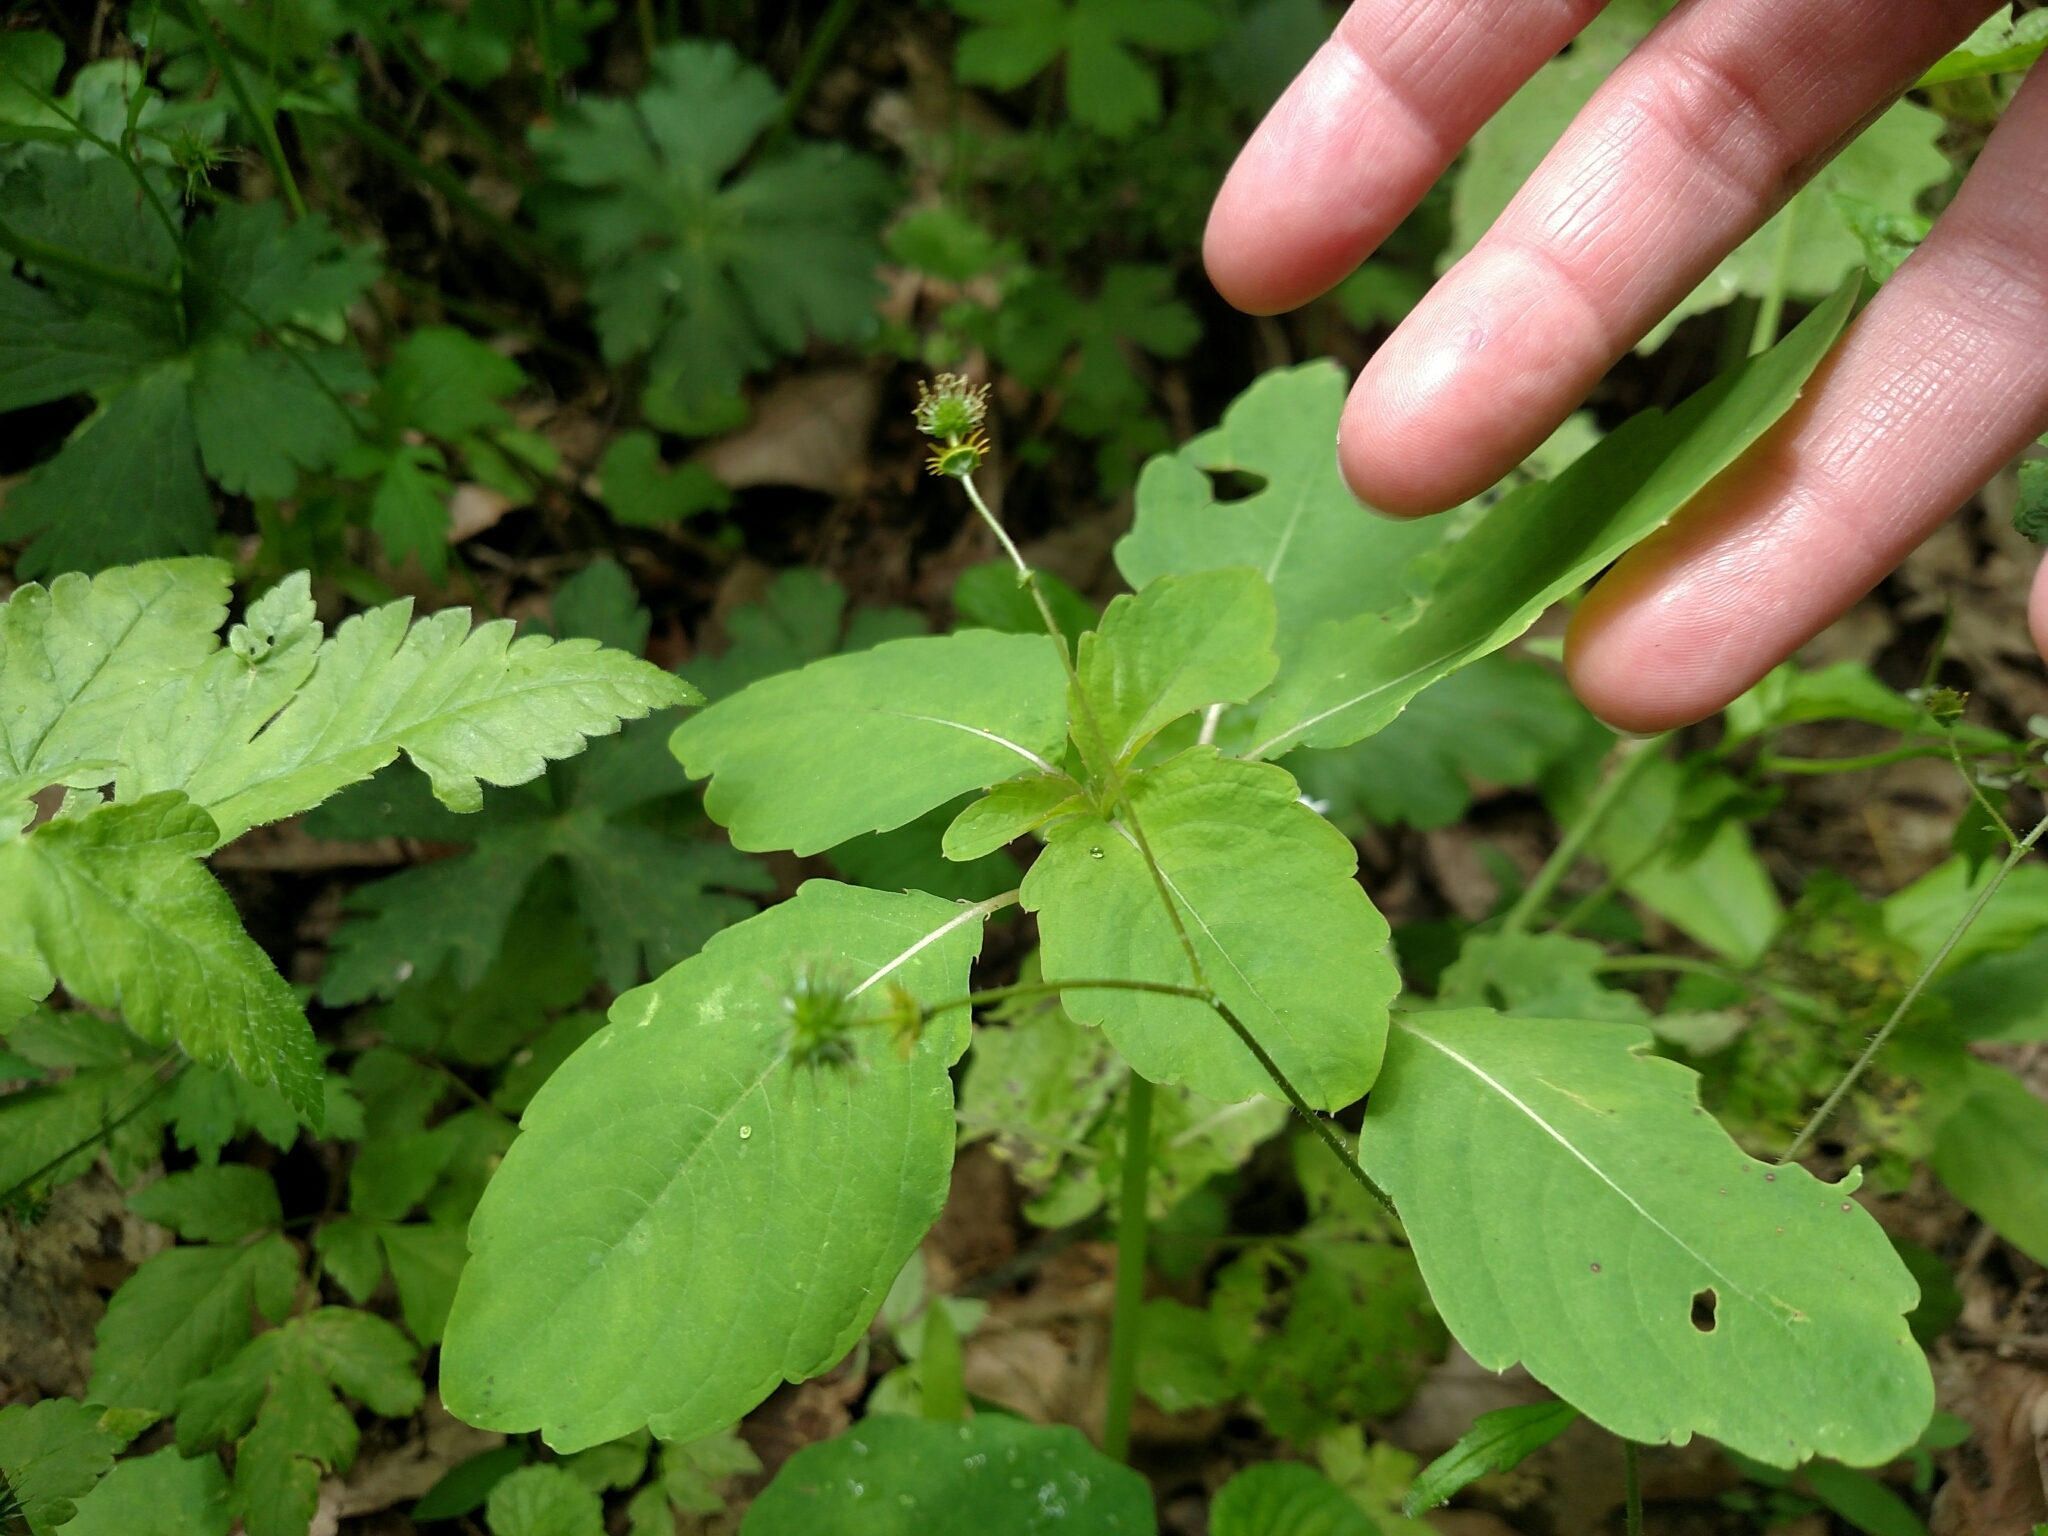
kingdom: Plantae
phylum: Tracheophyta
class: Magnoliopsida
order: Ericales
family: Balsaminaceae
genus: Impatiens
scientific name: Impatiens capensis
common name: Orange balsam
